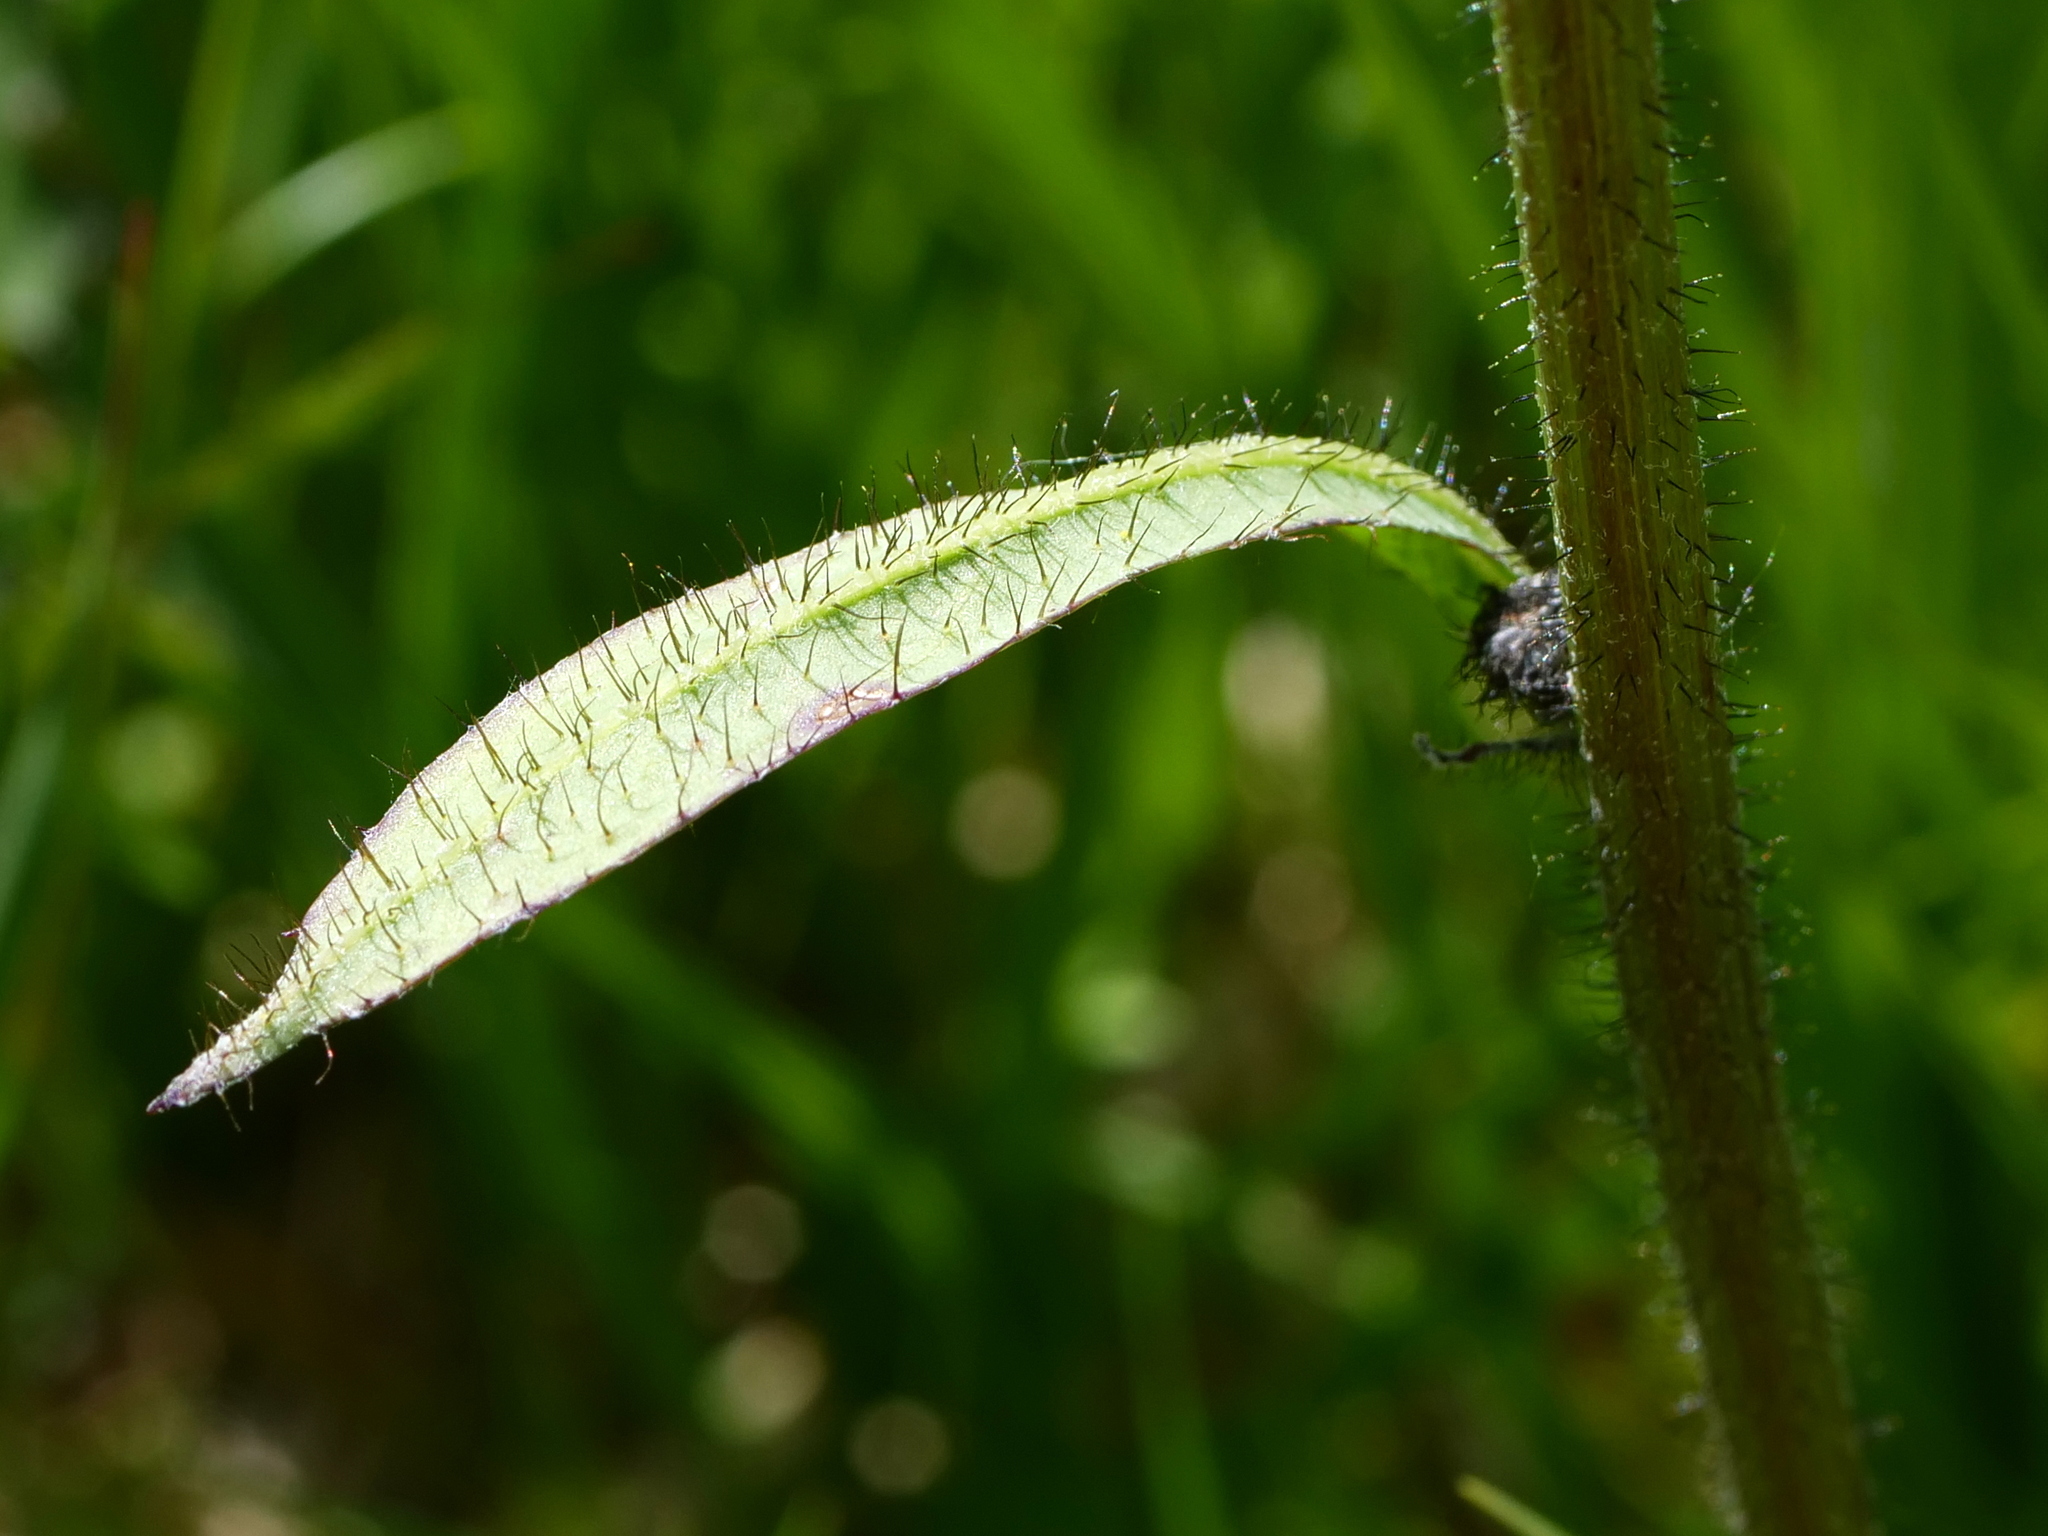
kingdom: Plantae
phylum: Tracheophyta
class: Magnoliopsida
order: Asterales
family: Asteraceae
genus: Willemetia
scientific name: Willemetia stipitata
